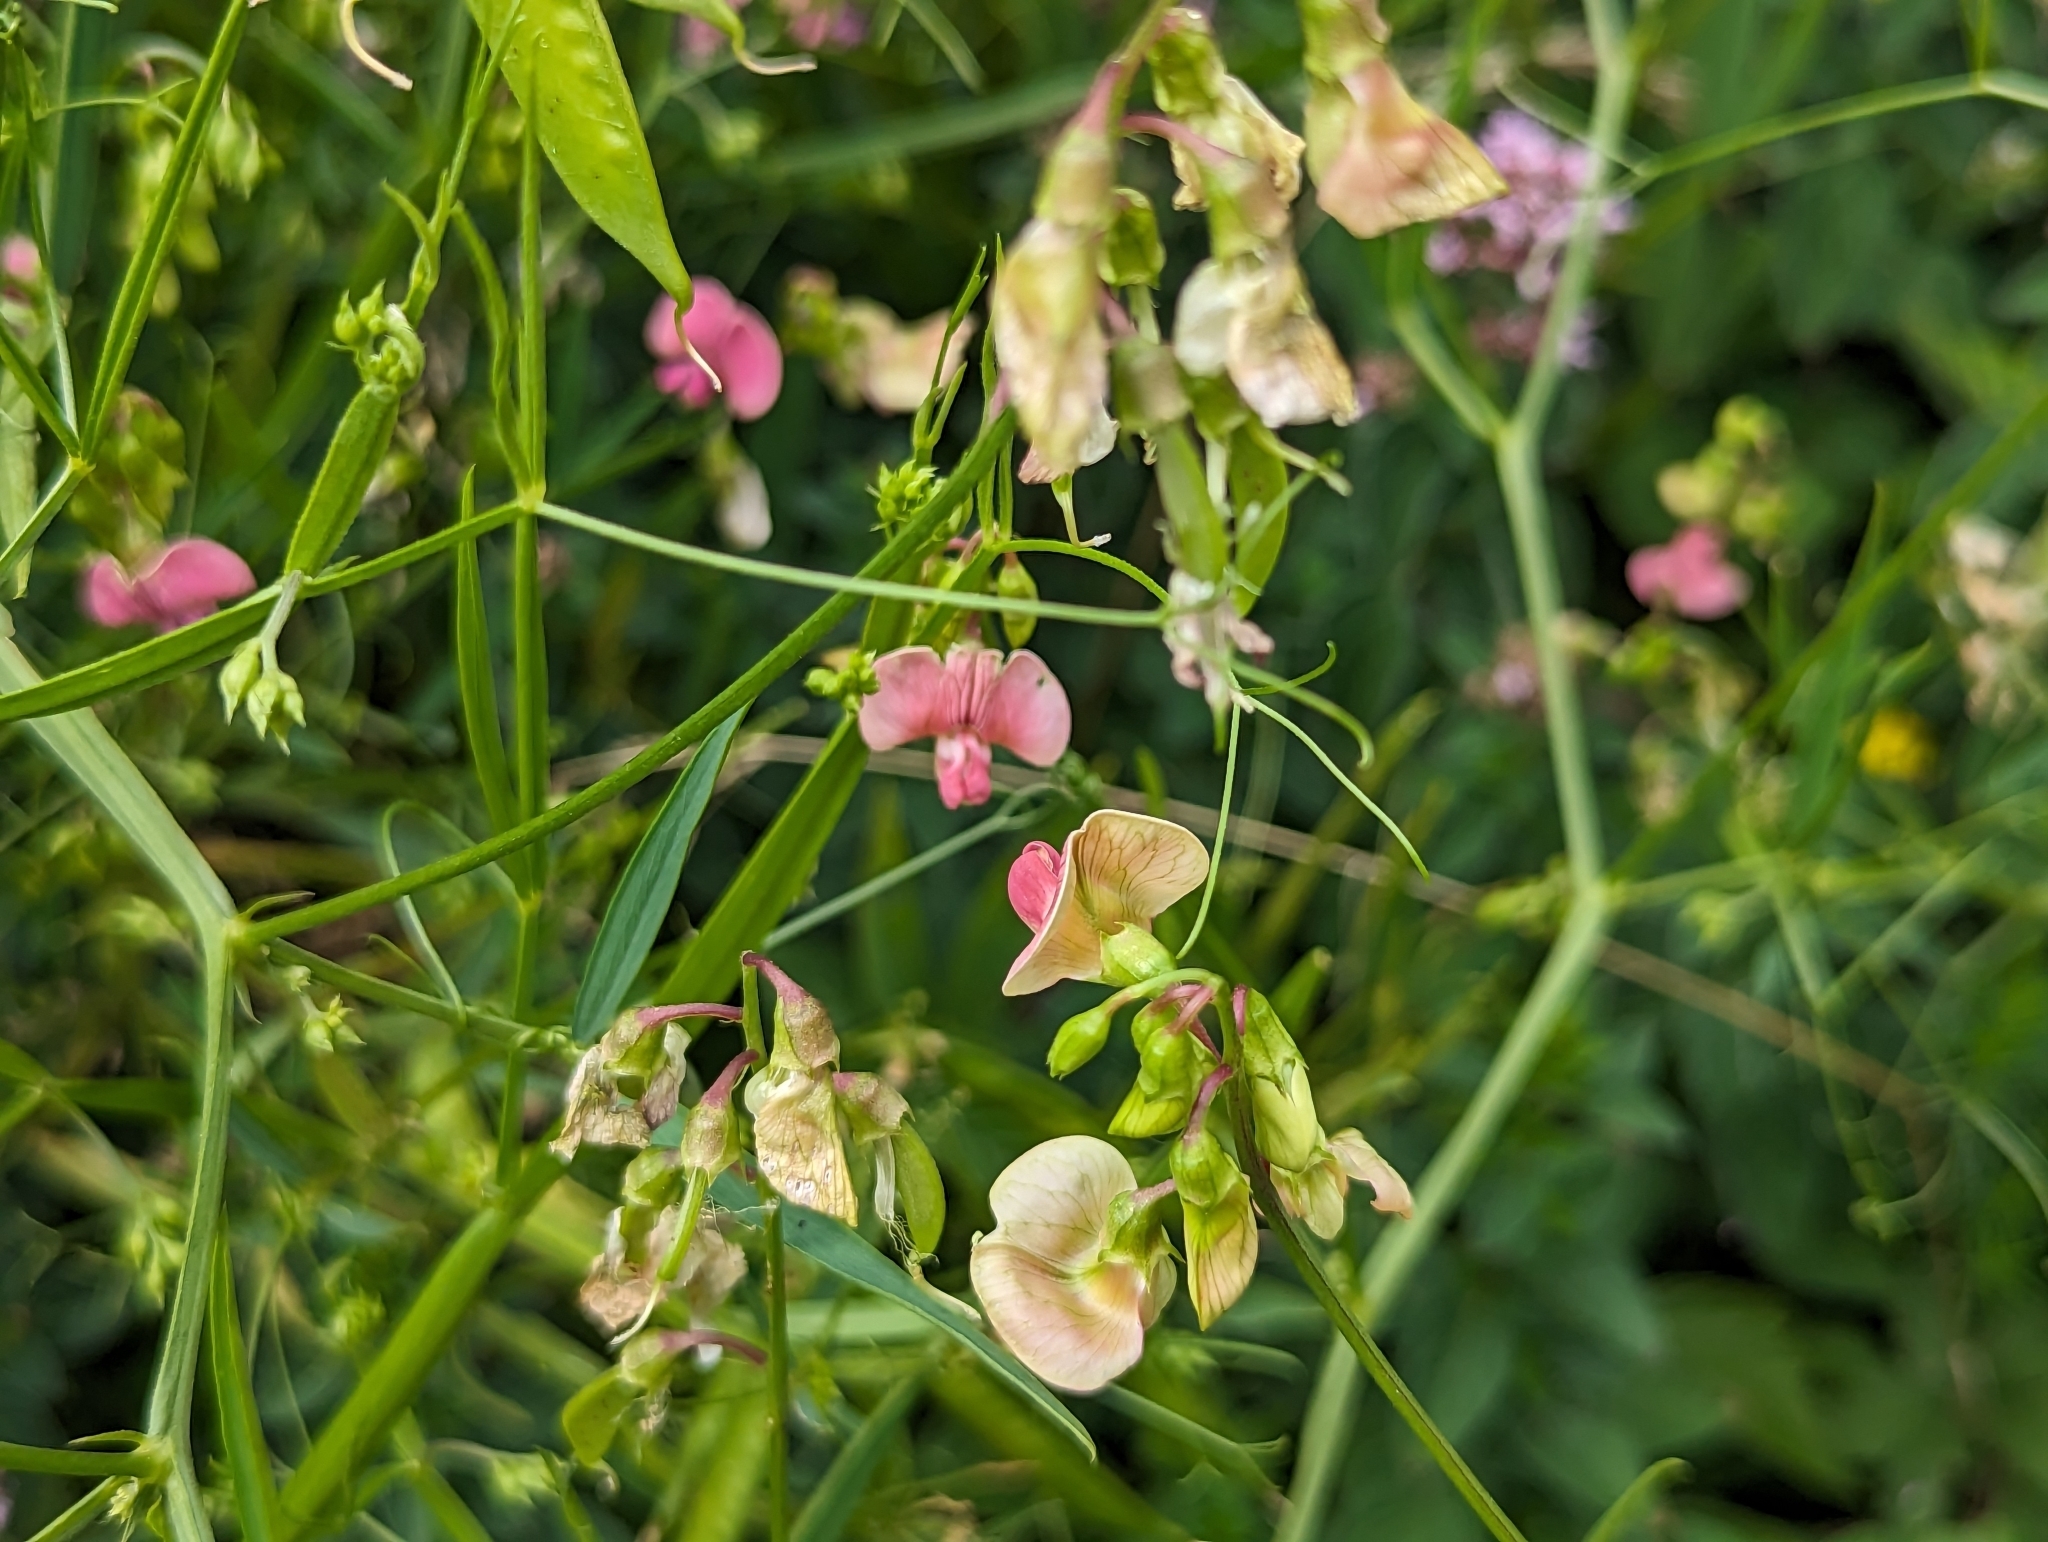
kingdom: Plantae
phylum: Tracheophyta
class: Magnoliopsida
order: Fabales
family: Fabaceae
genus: Lathyrus
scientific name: Lathyrus sylvestris
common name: Flat pea
